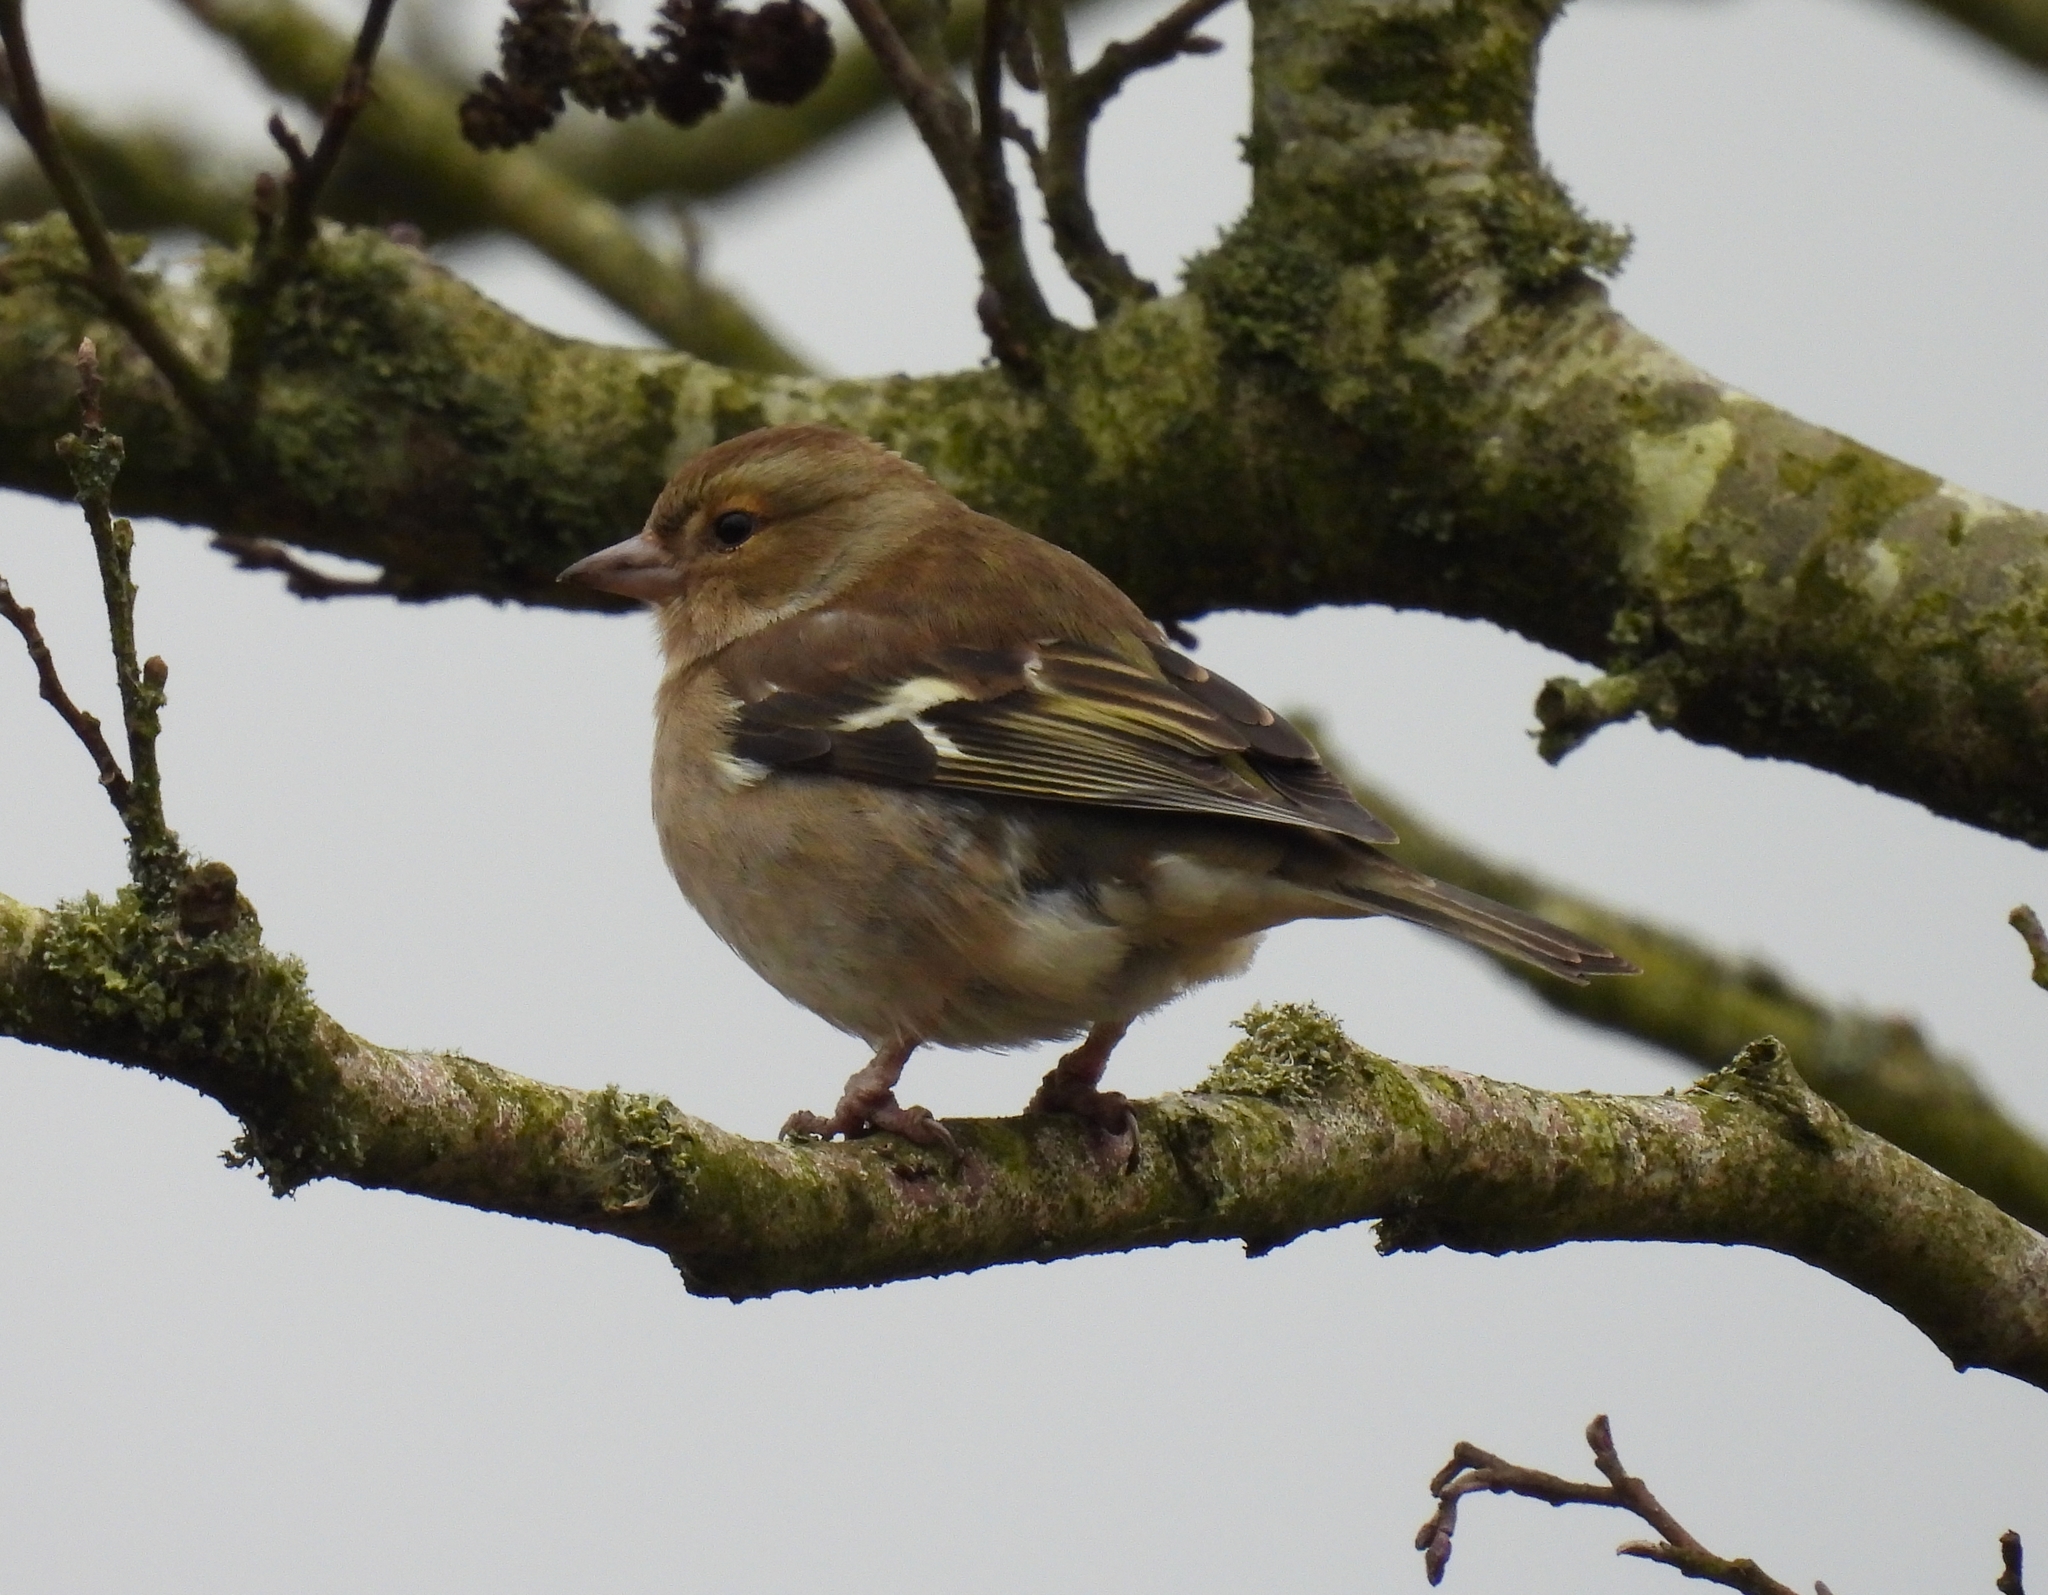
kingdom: Animalia
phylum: Chordata
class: Aves
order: Passeriformes
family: Fringillidae
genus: Fringilla
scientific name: Fringilla coelebs
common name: Common chaffinch
